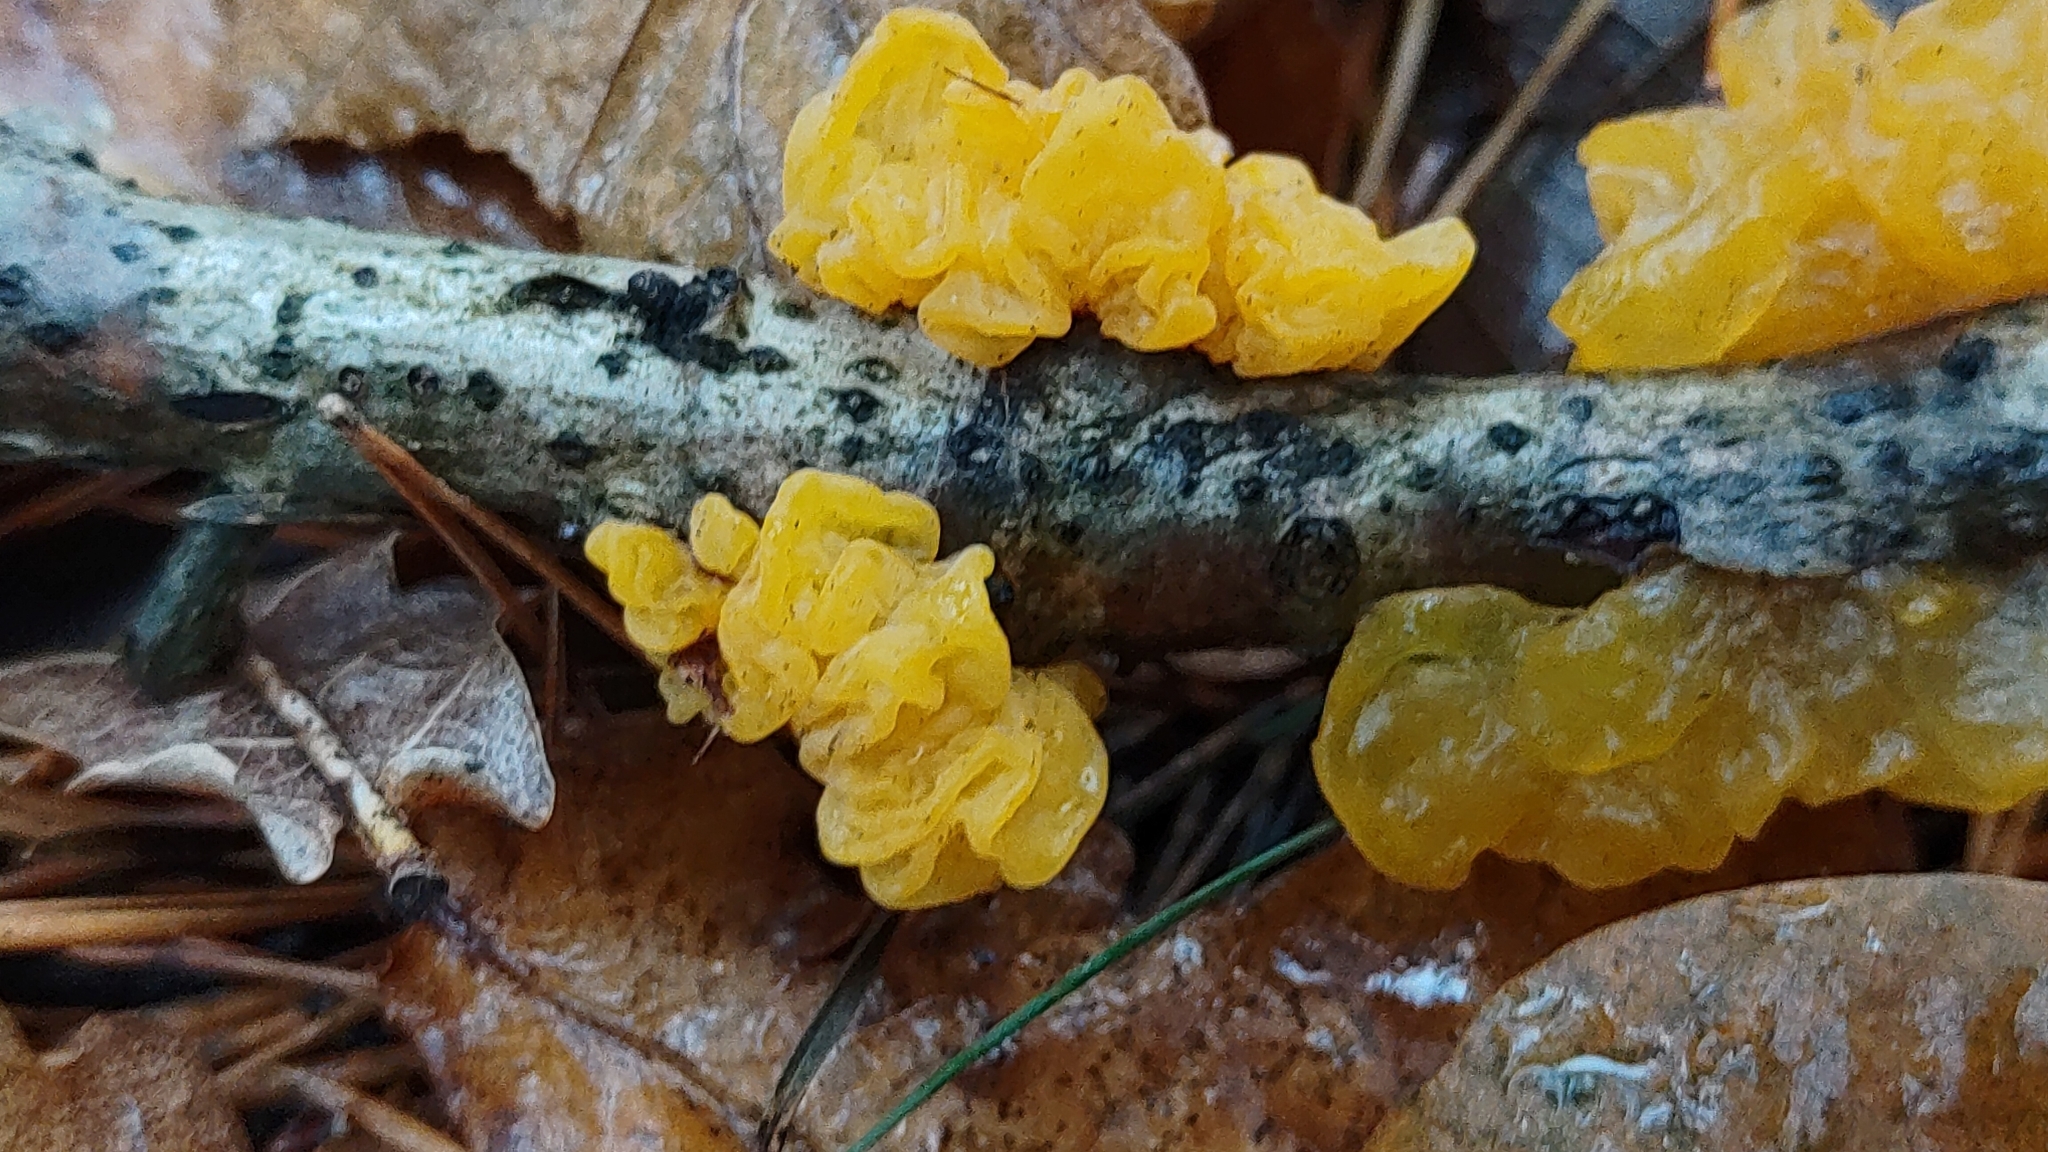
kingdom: Fungi
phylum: Basidiomycota
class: Tremellomycetes
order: Tremellales
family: Tremellaceae
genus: Tremella
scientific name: Tremella mesenterica
